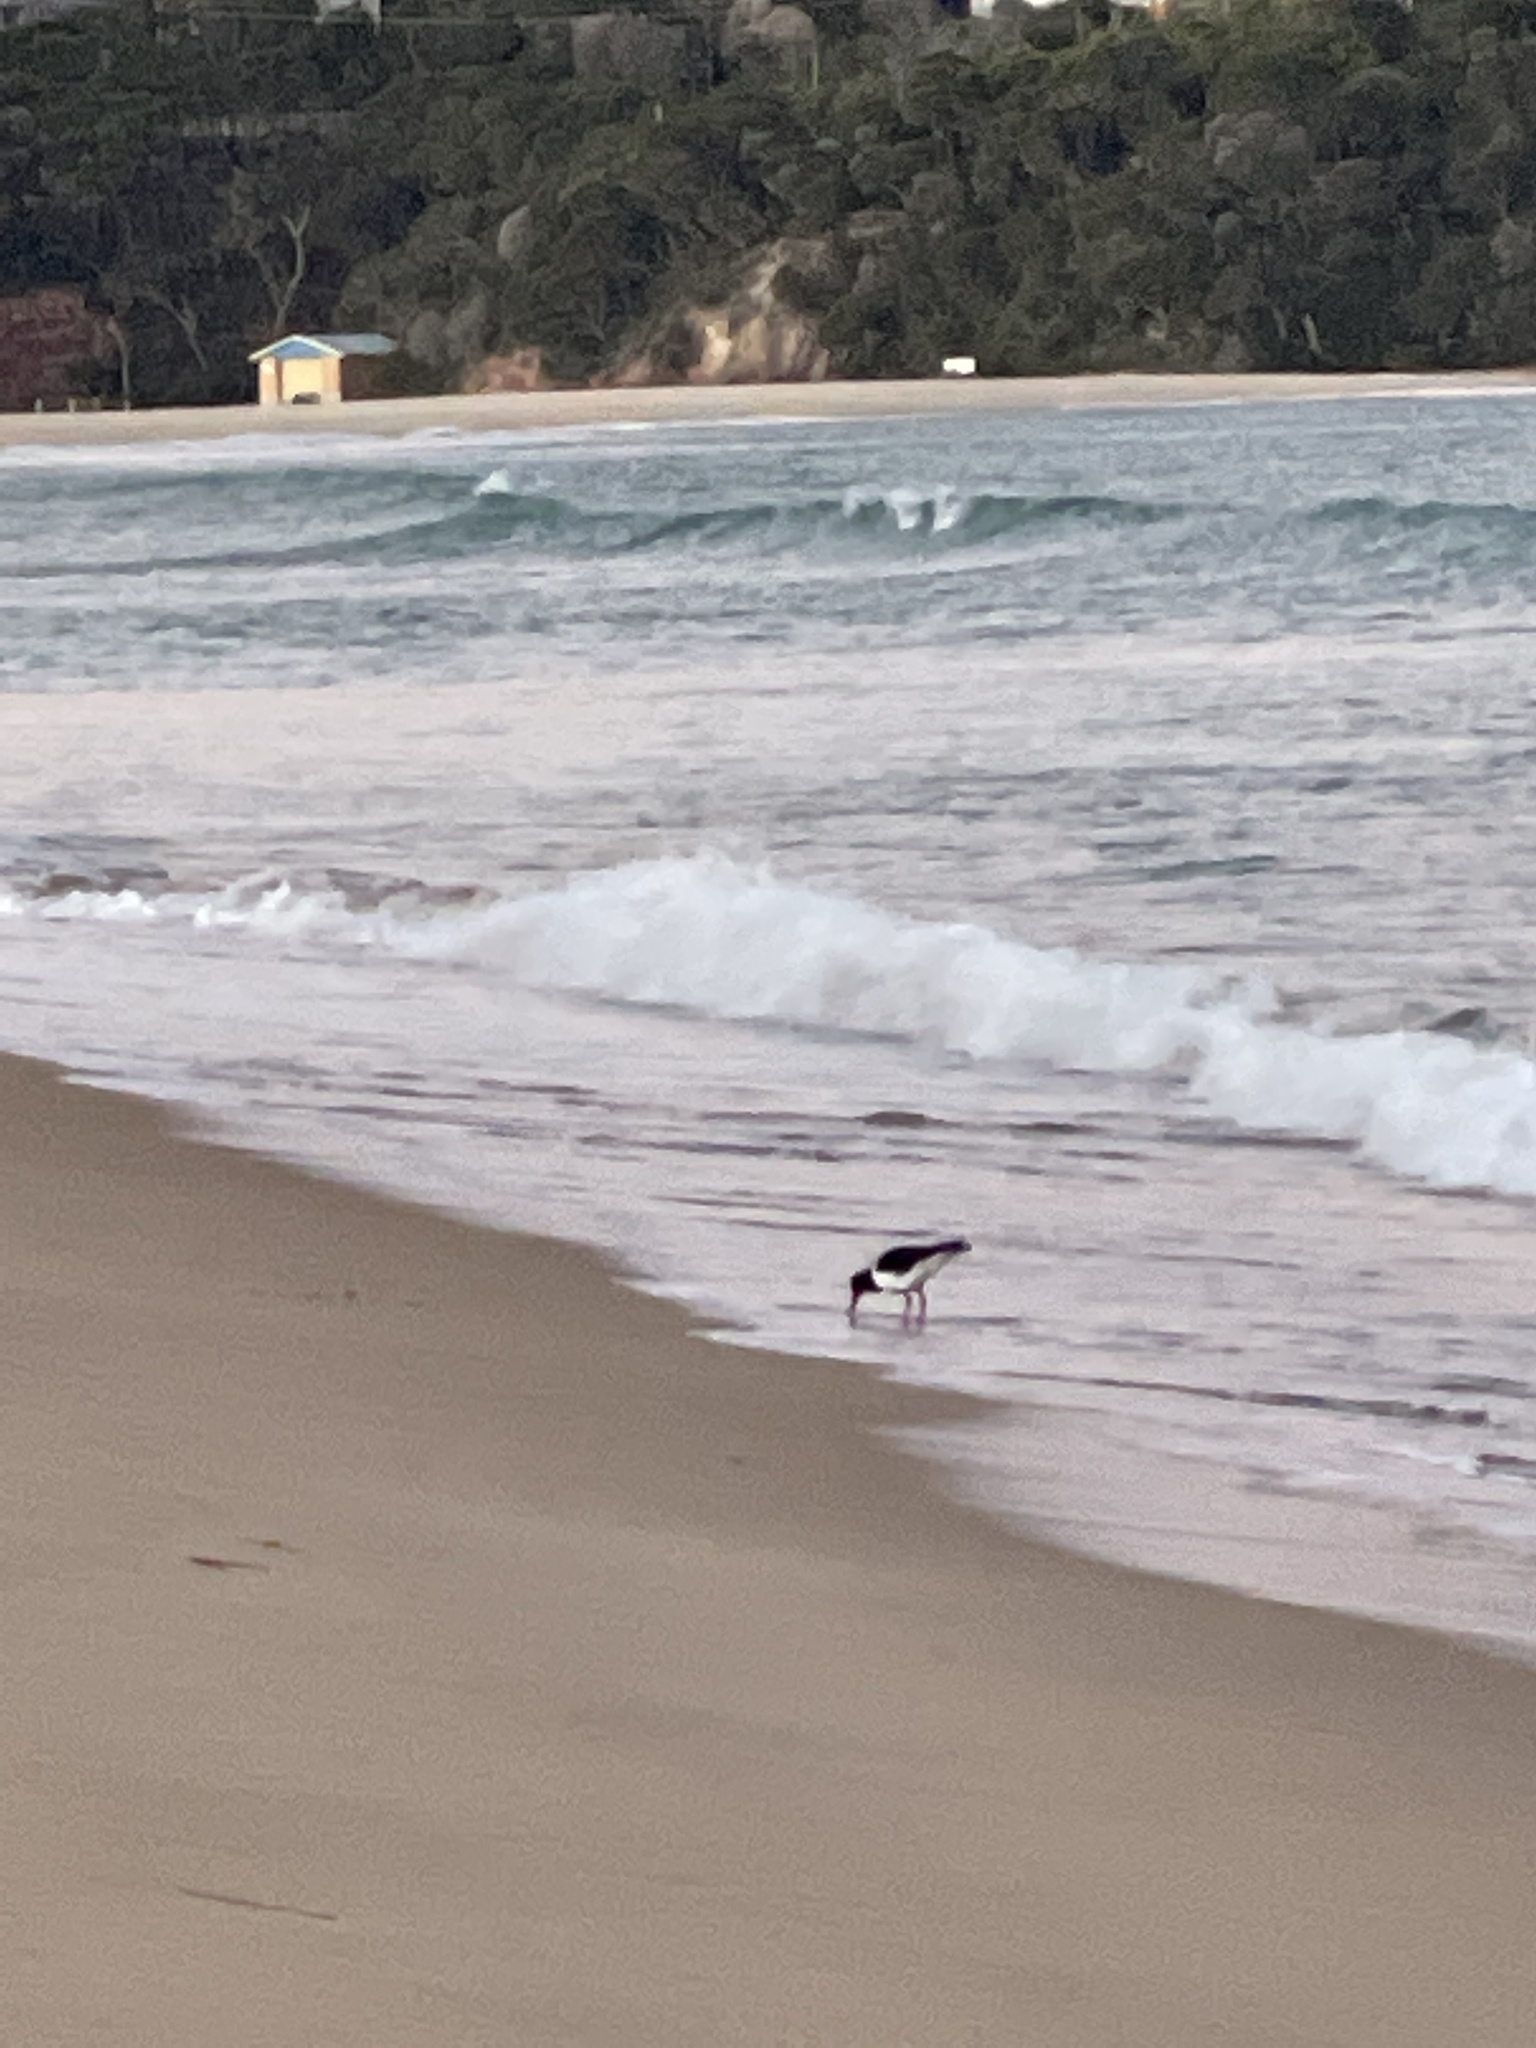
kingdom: Animalia
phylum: Chordata
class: Aves
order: Charadriiformes
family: Haematopodidae
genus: Haematopus
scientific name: Haematopus longirostris
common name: Pied oystercatcher
